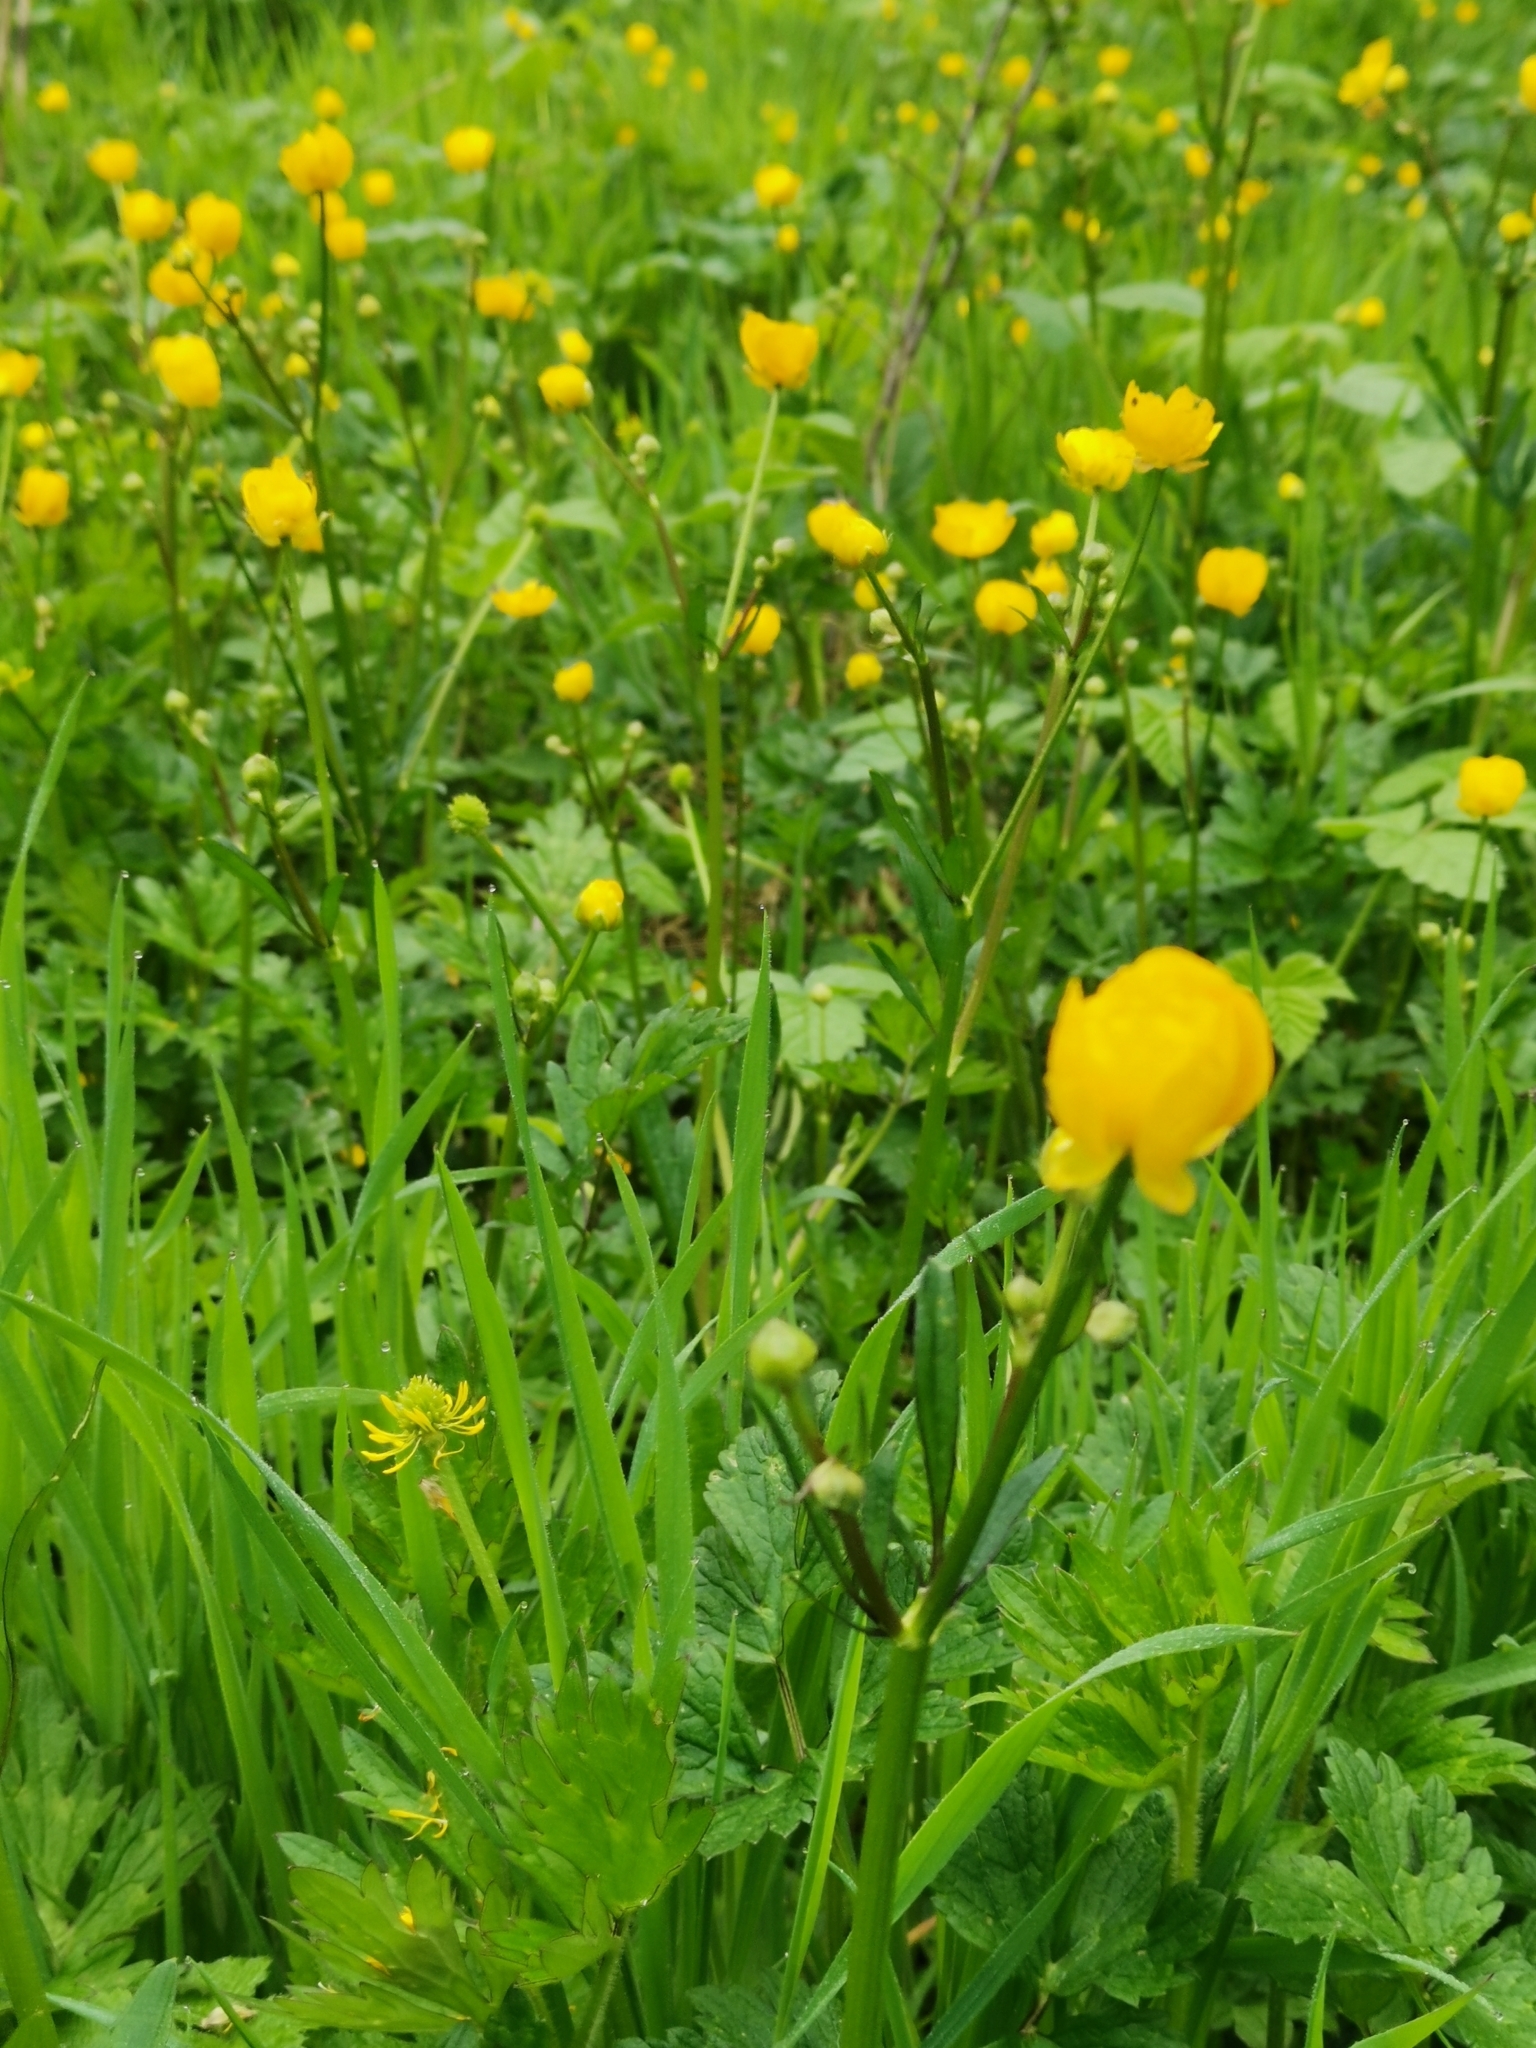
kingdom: Plantae
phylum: Tracheophyta
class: Magnoliopsida
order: Ranunculales
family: Ranunculaceae
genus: Ranunculus
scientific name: Ranunculus acris
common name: Meadow buttercup
